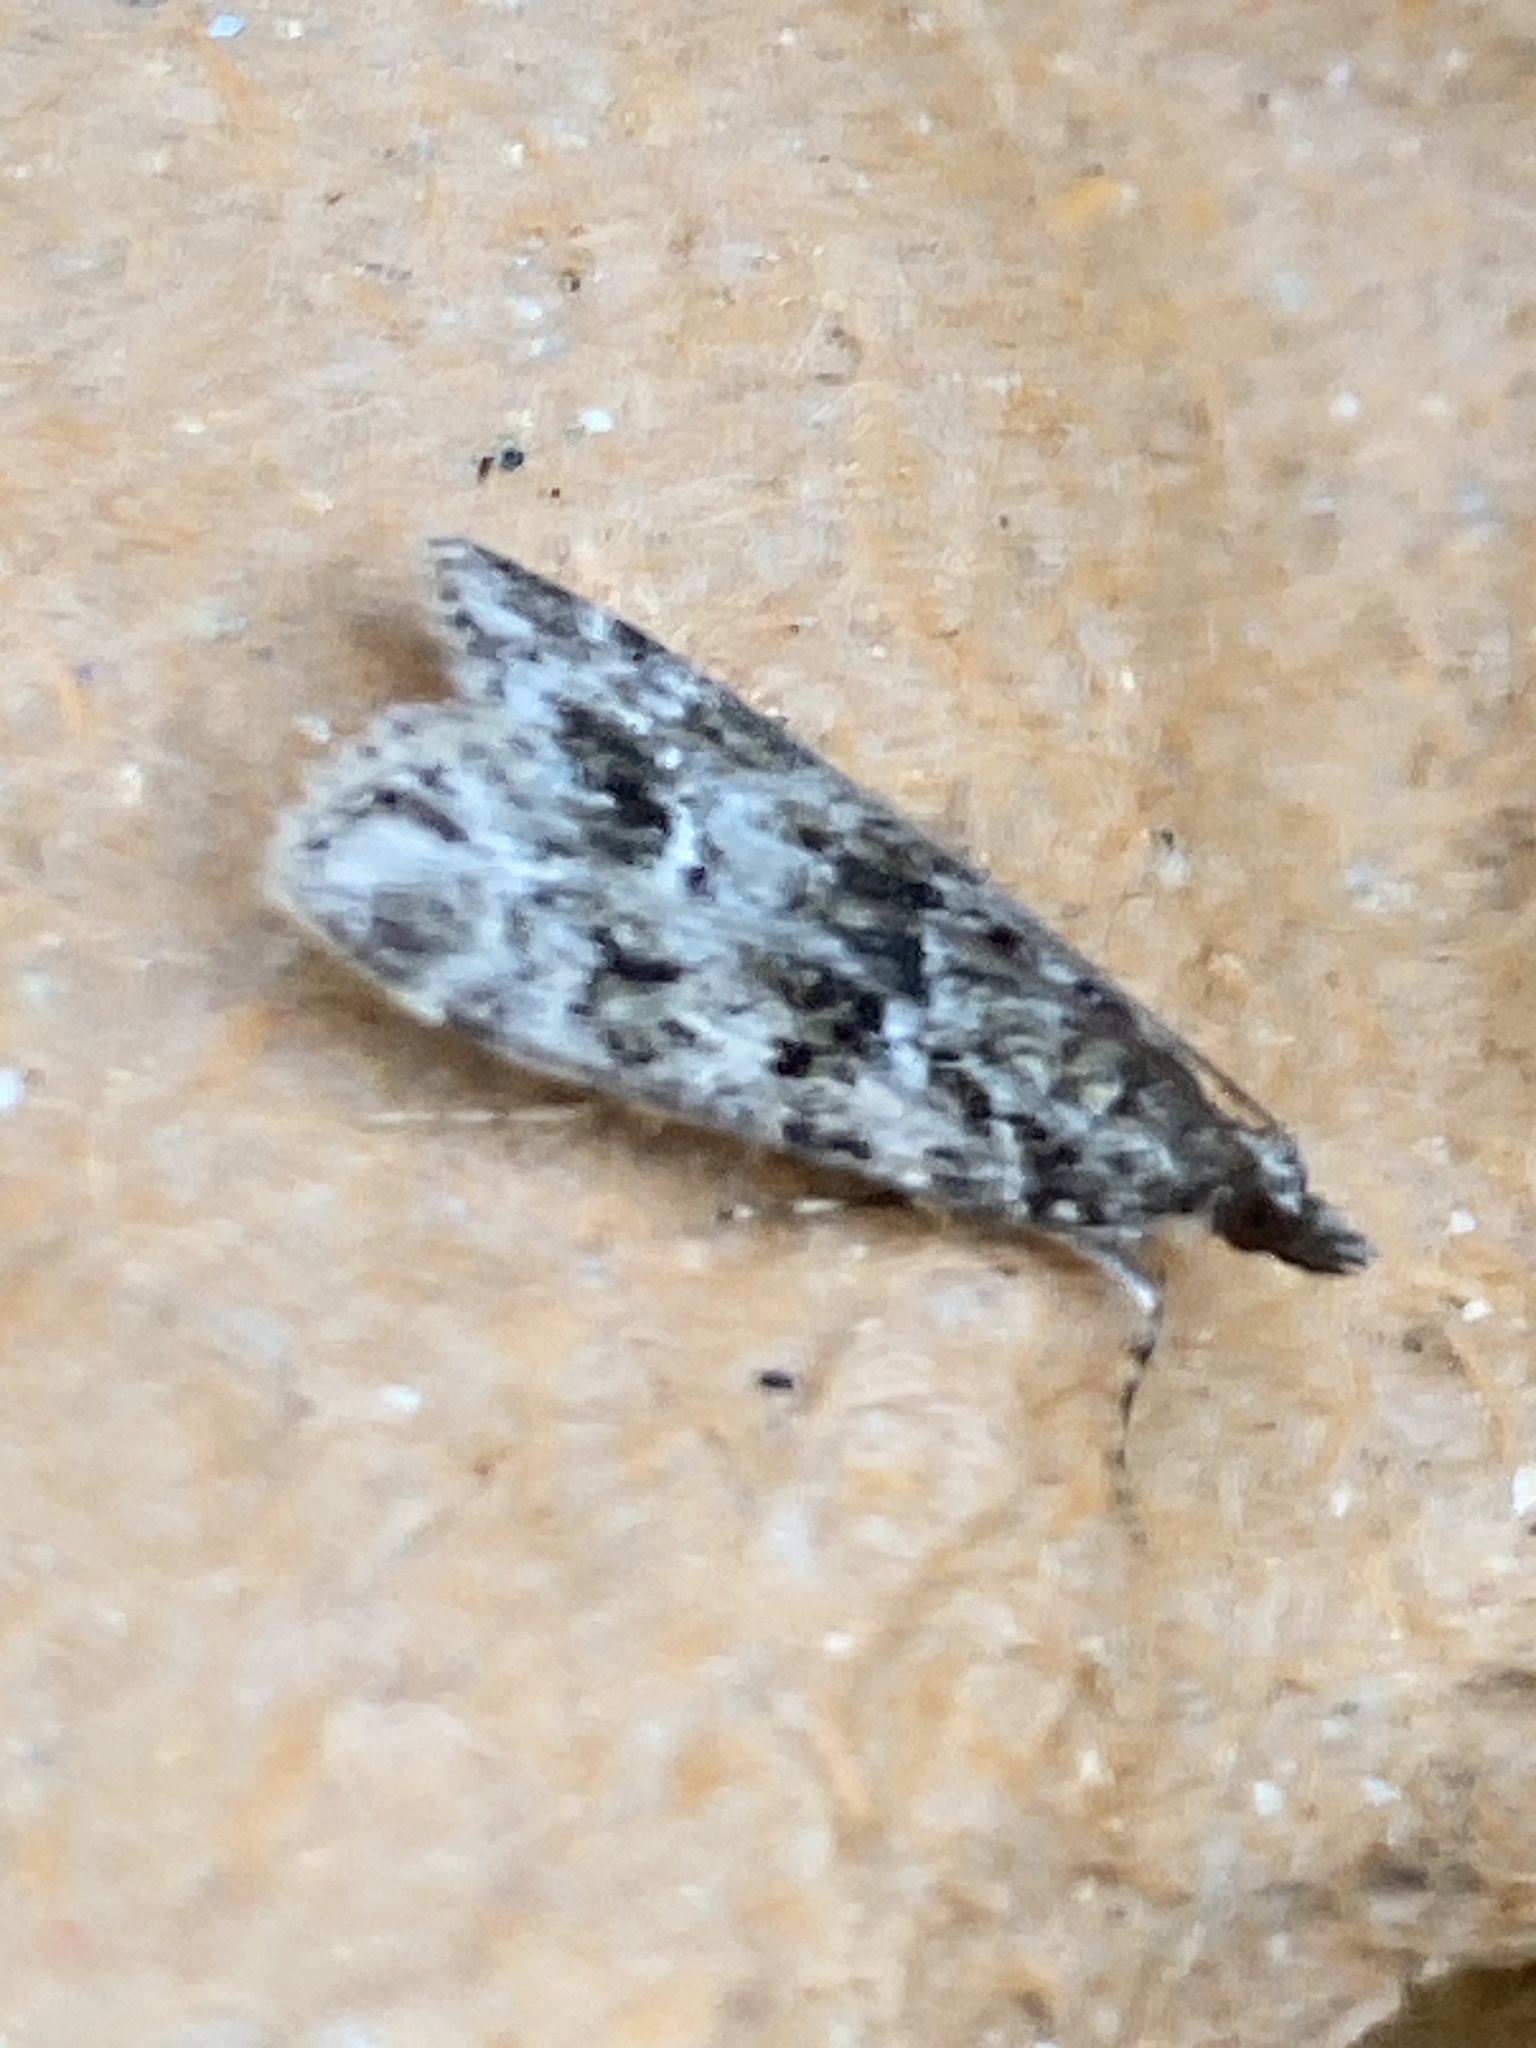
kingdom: Animalia
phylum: Arthropoda
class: Insecta
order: Lepidoptera
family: Crambidae
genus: Eudonia
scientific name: Eudonia mercurella
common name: Small grey
